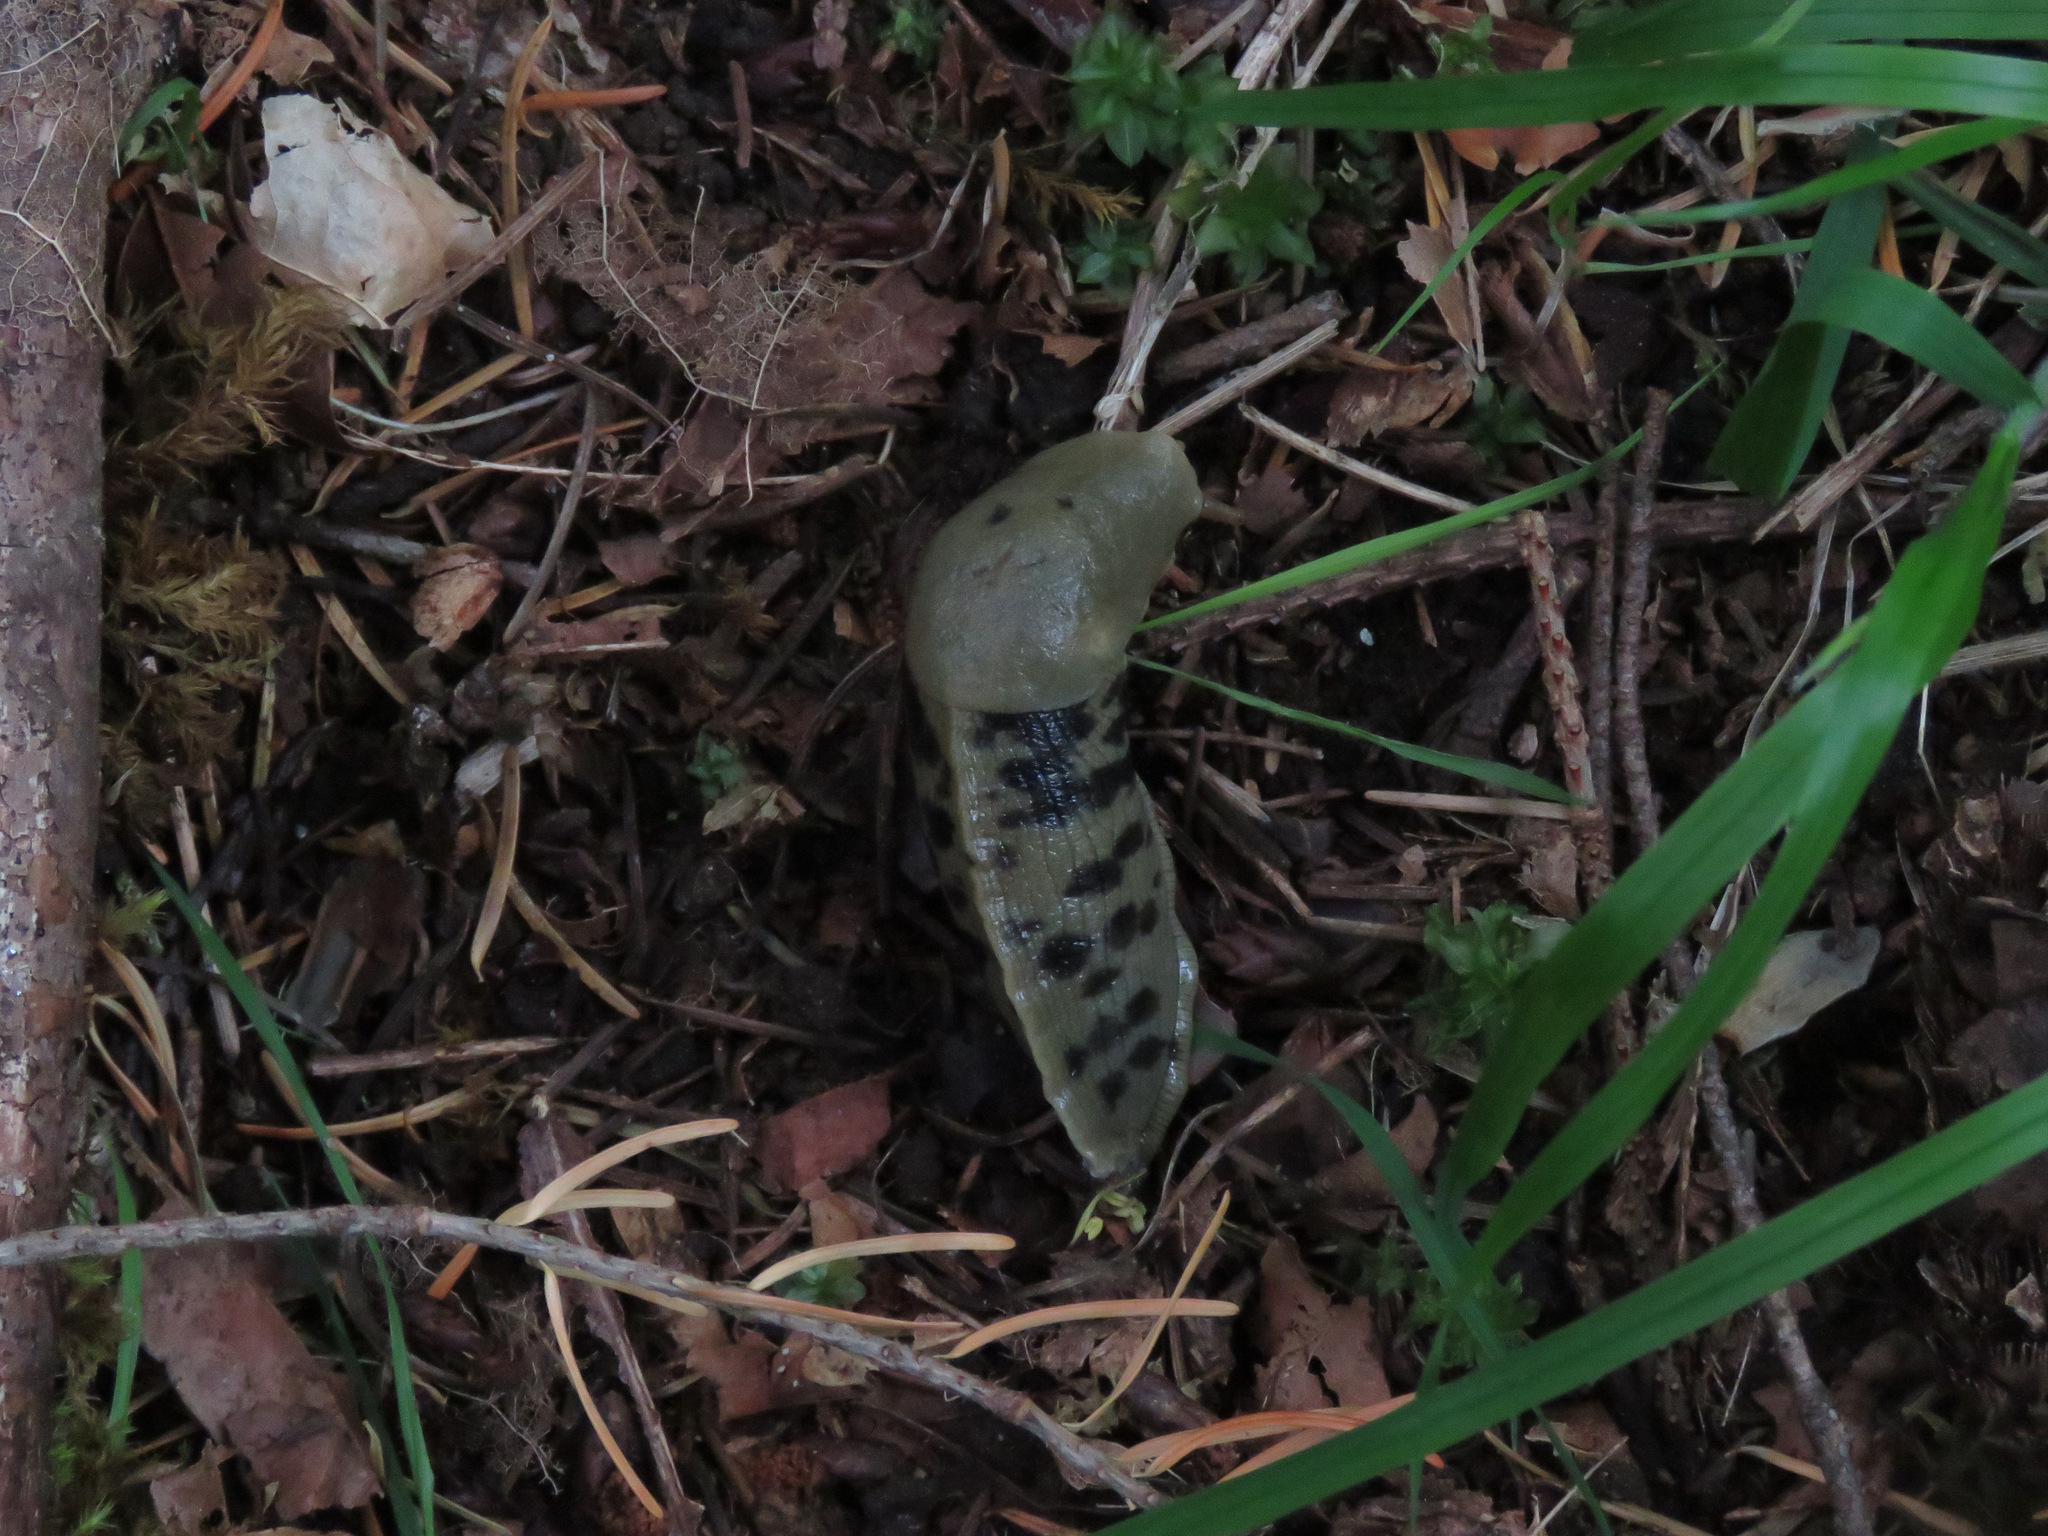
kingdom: Animalia
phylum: Mollusca
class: Gastropoda
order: Stylommatophora
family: Ariolimacidae
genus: Ariolimax
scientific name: Ariolimax columbianus
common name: Pacific banana slug
